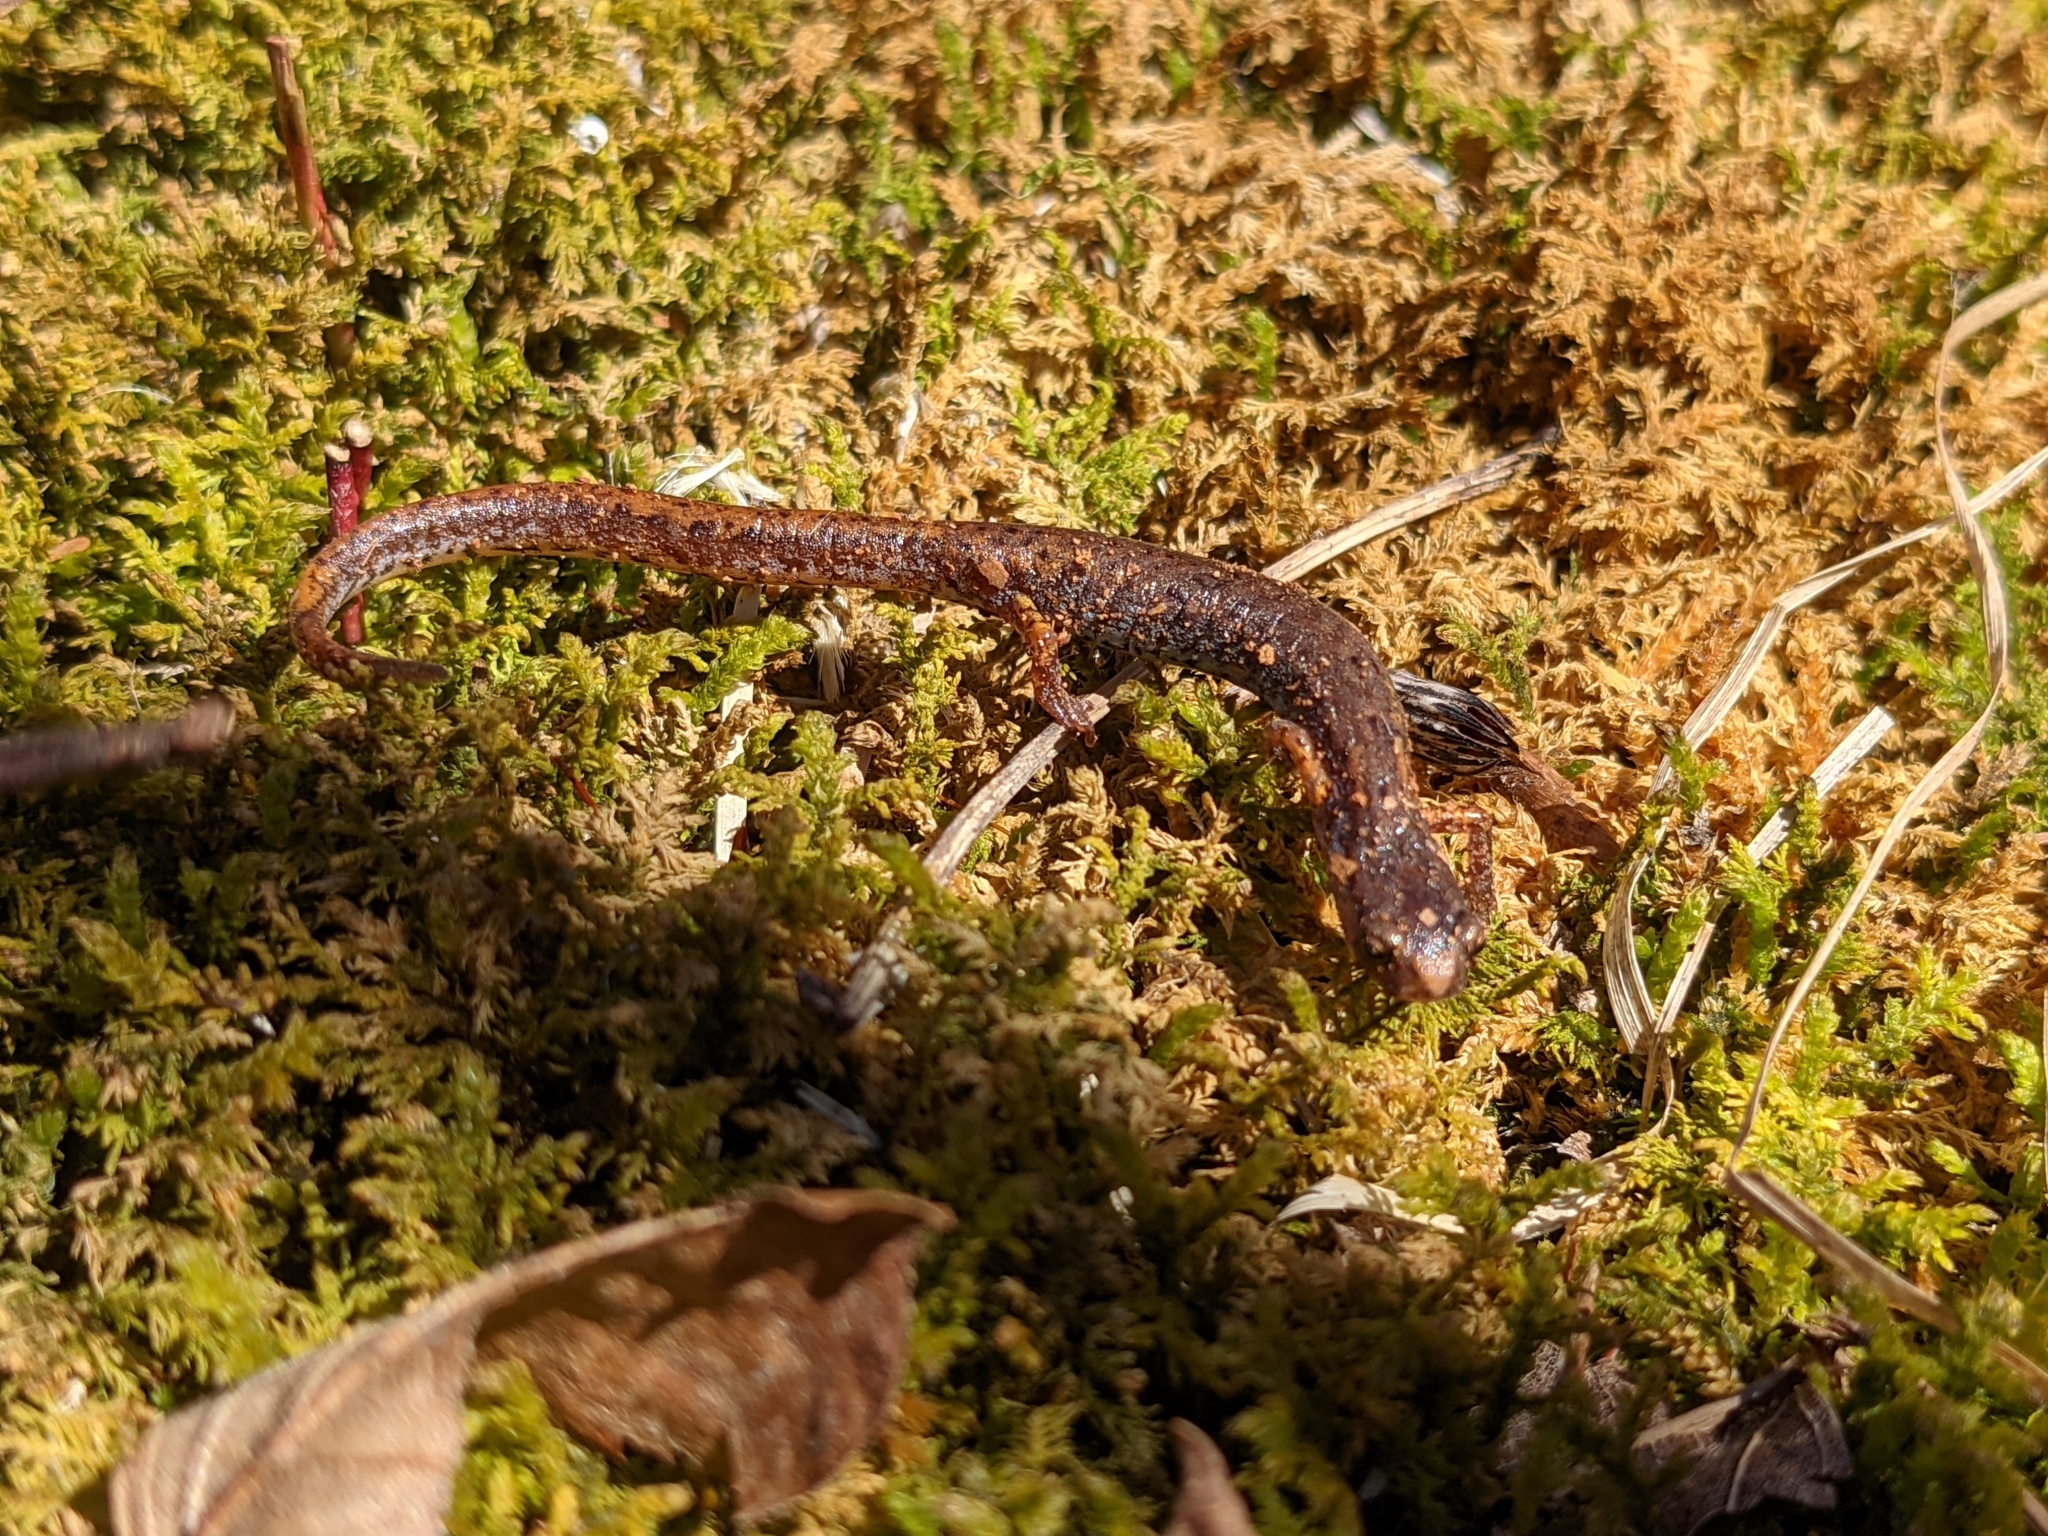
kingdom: Animalia
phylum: Chordata
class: Amphibia
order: Caudata
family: Plethodontidae
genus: Hemidactylium
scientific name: Hemidactylium scutatum
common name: Four-toed salamander
